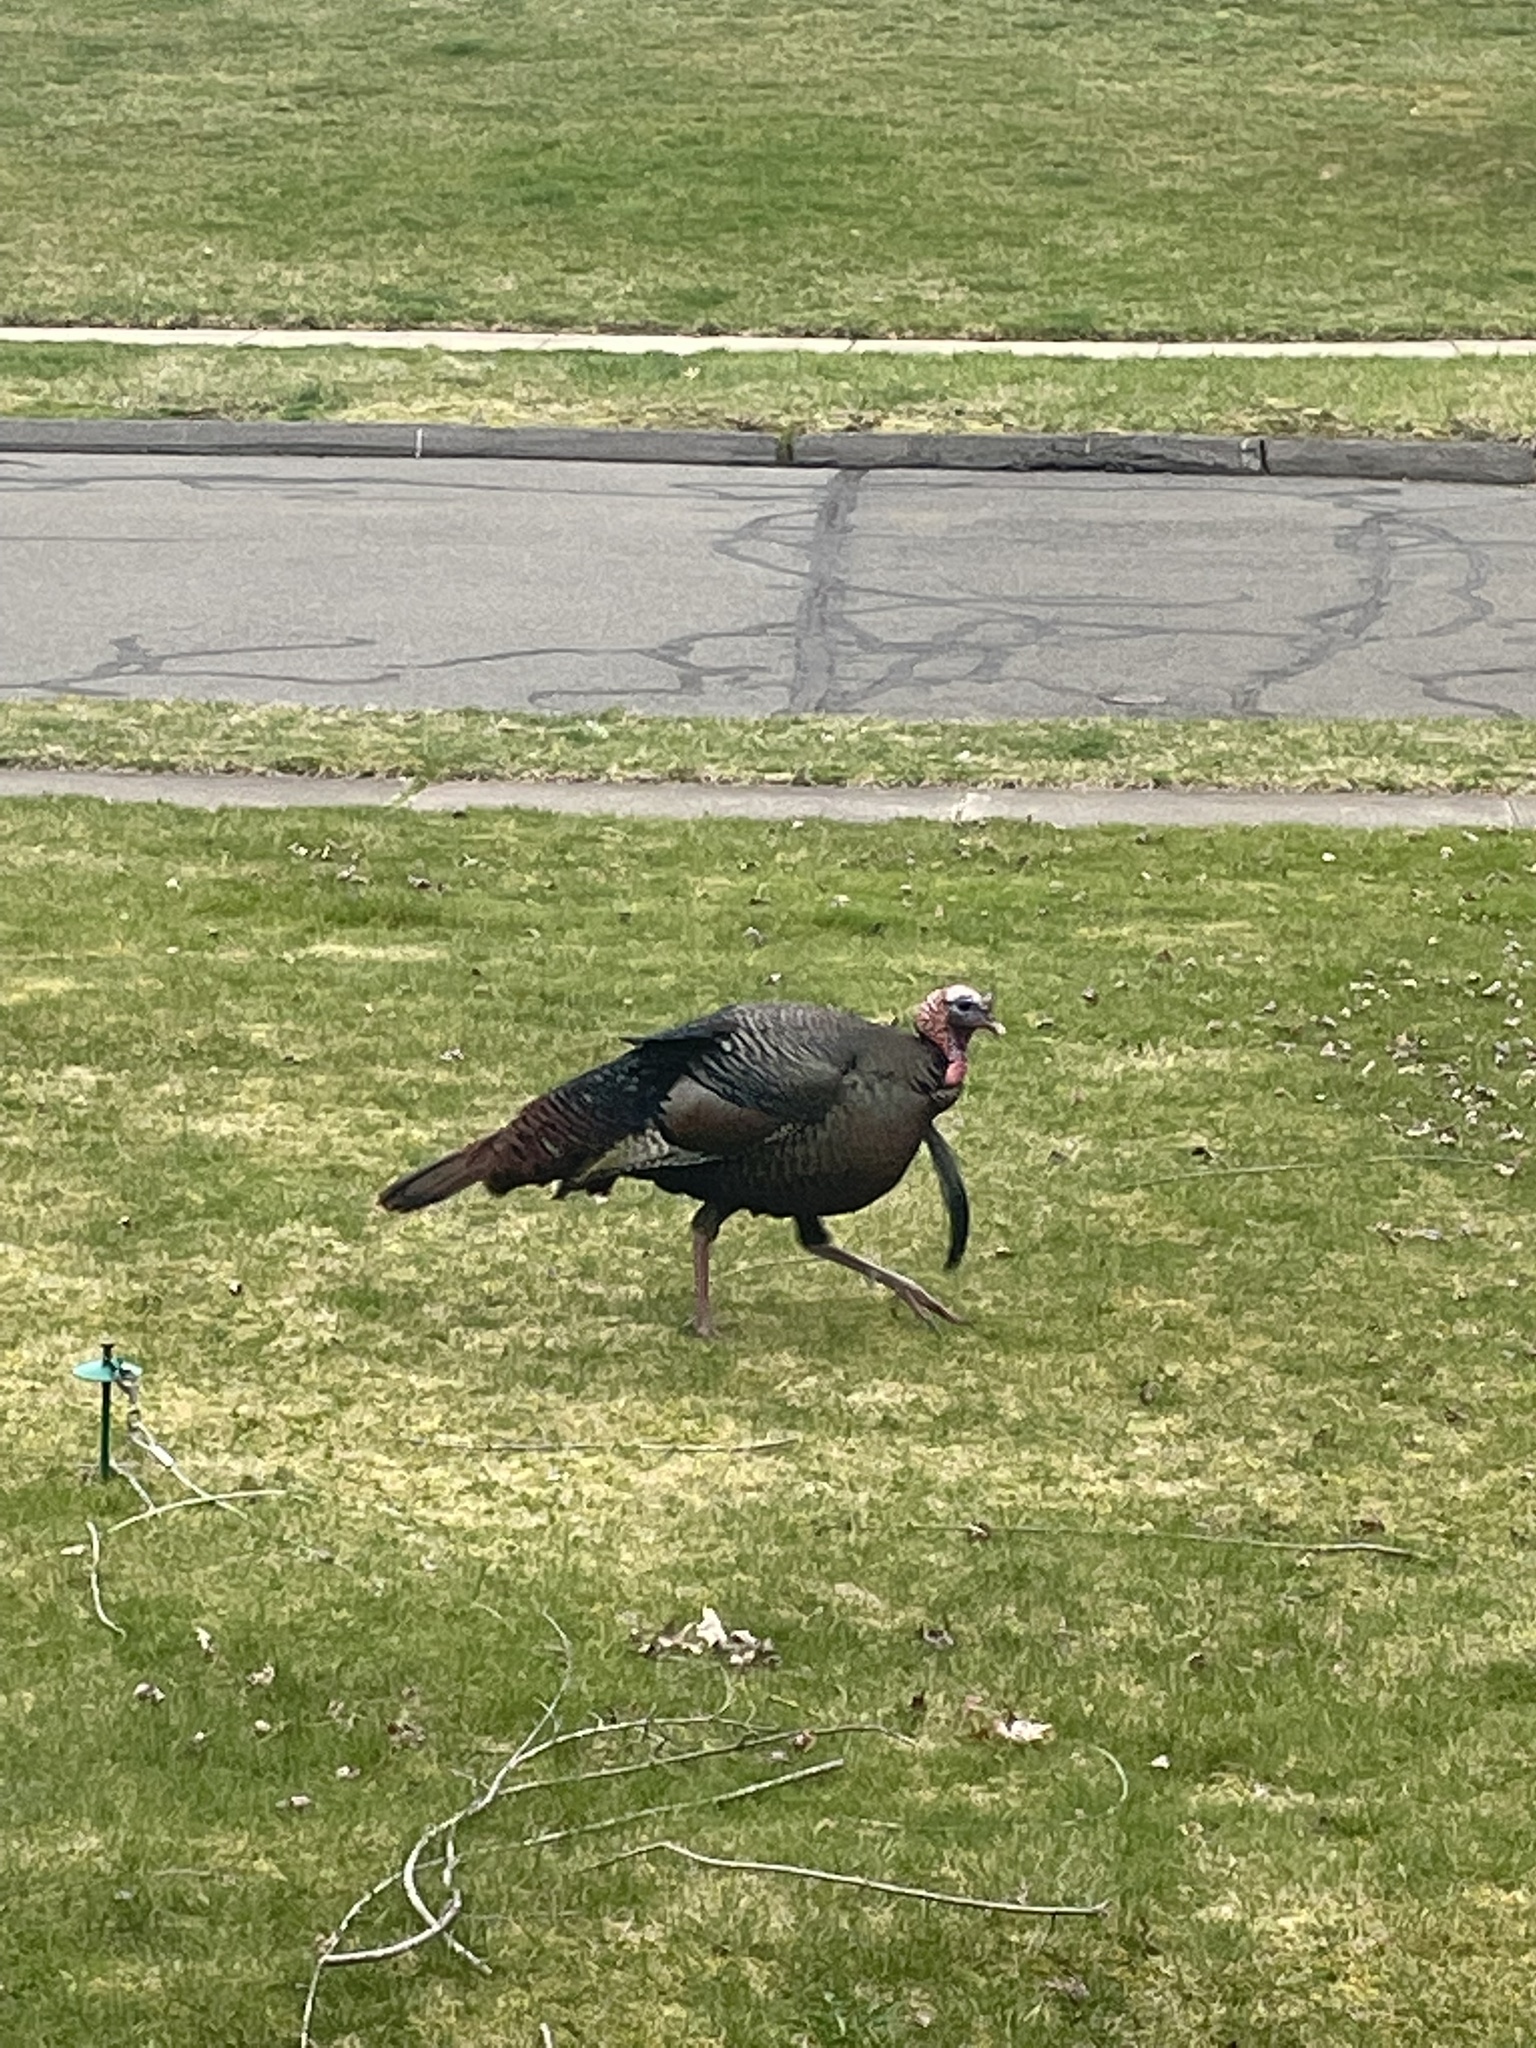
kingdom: Animalia
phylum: Chordata
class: Aves
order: Galliformes
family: Phasianidae
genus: Meleagris
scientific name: Meleagris gallopavo
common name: Wild turkey
